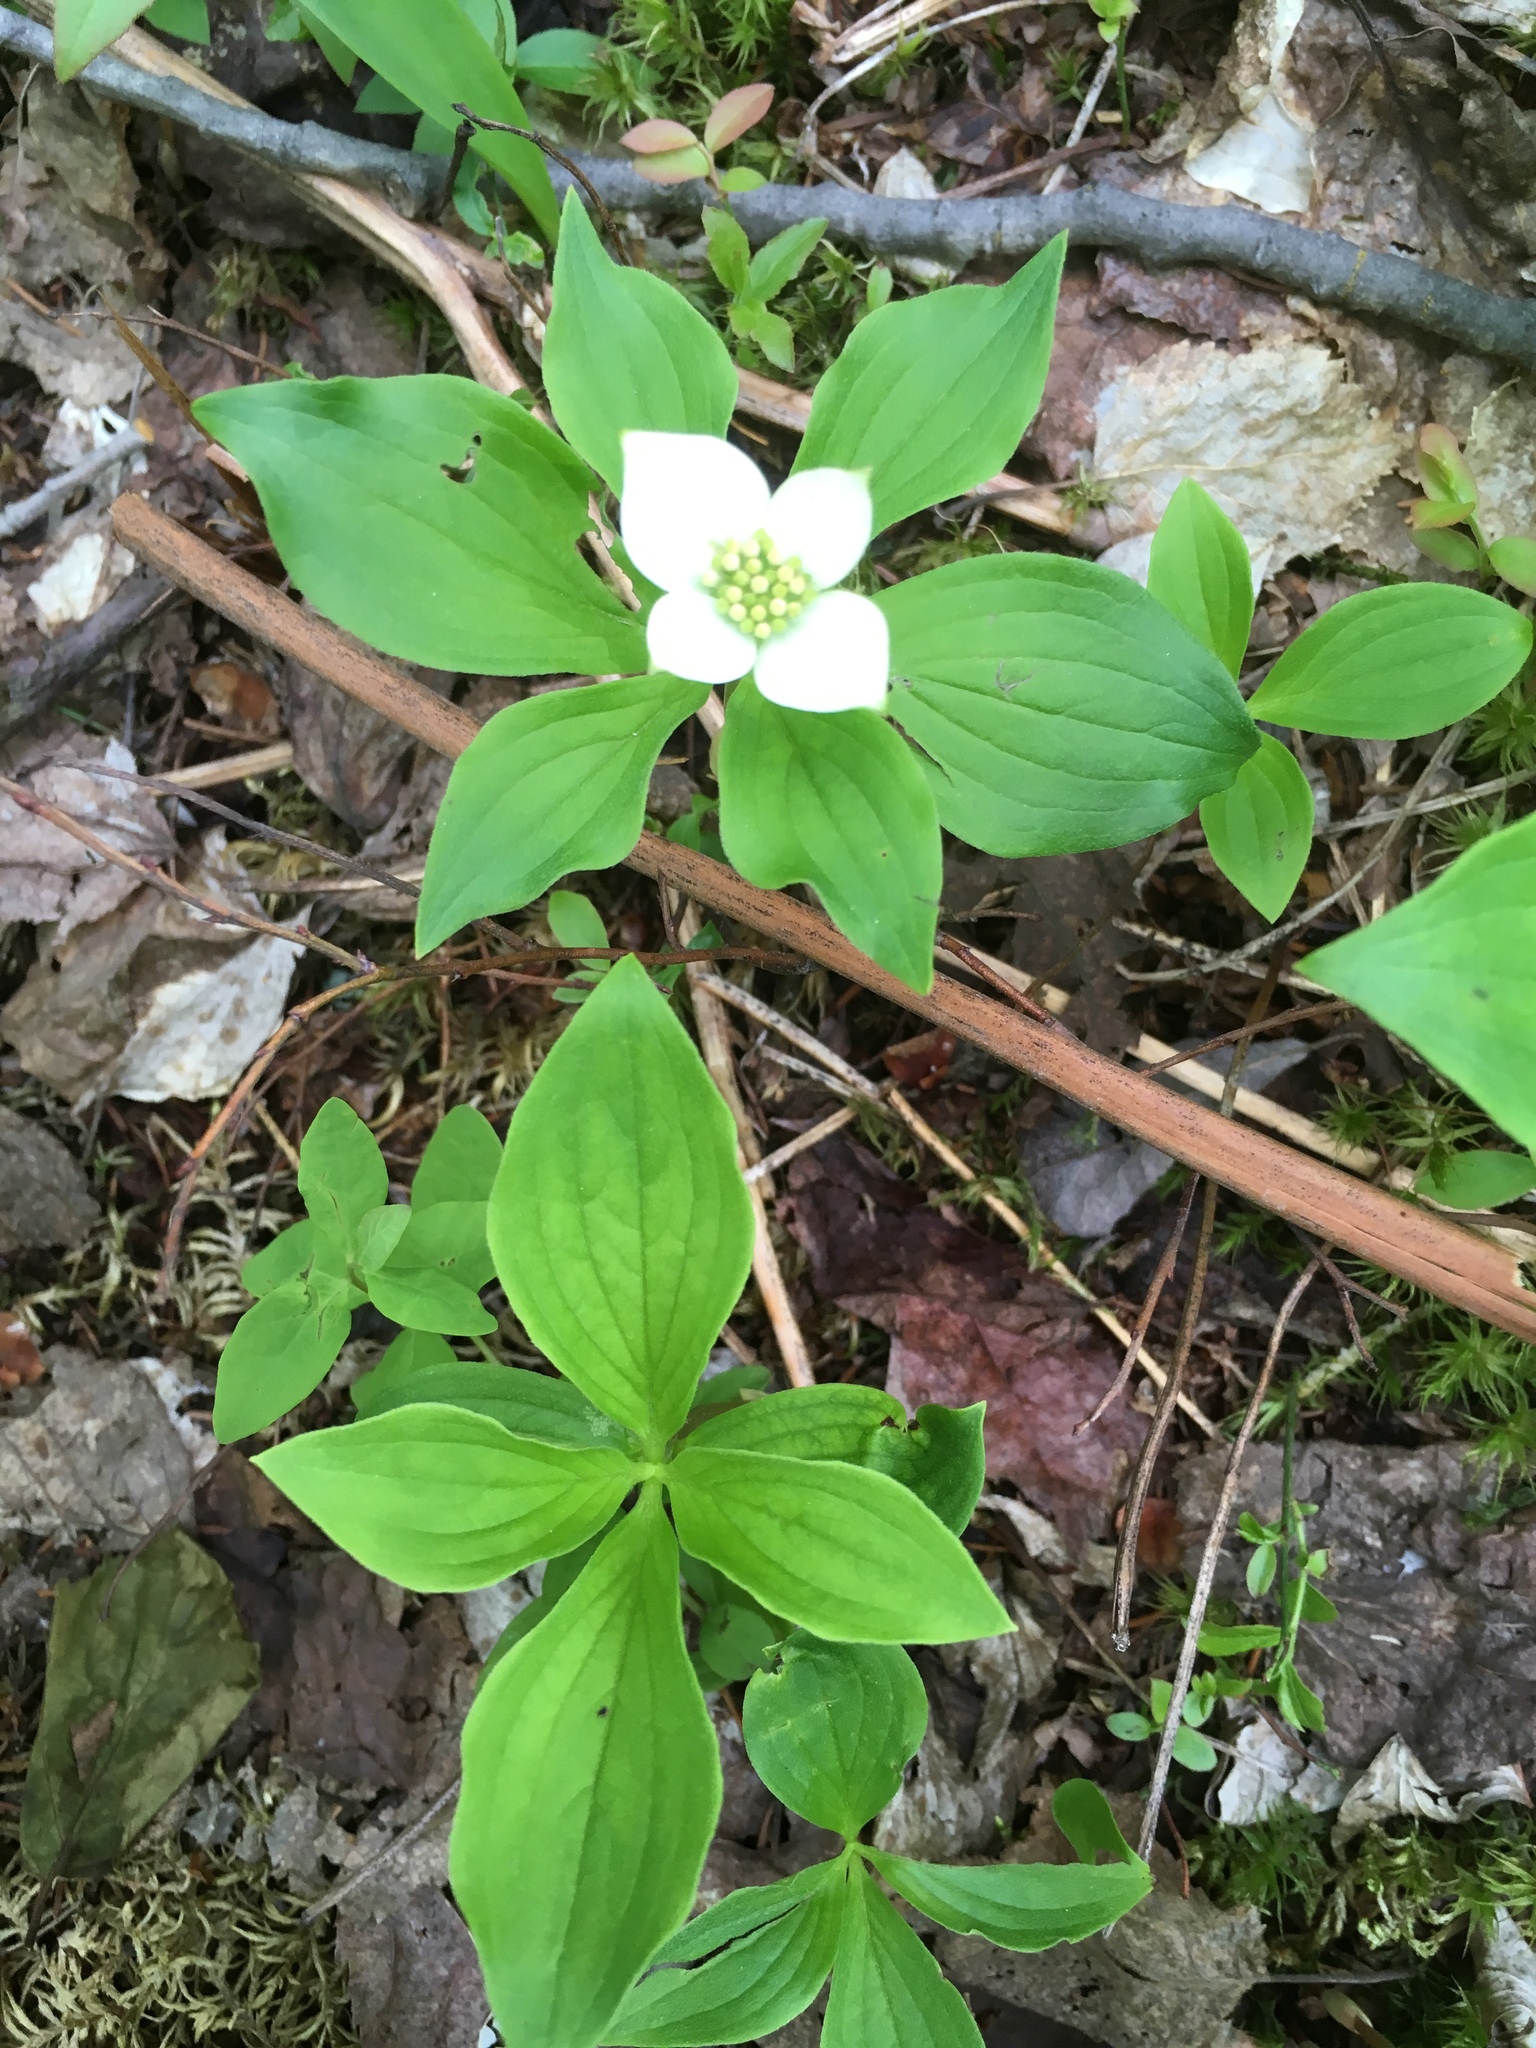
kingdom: Plantae
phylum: Tracheophyta
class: Magnoliopsida
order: Cornales
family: Cornaceae
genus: Cornus
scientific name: Cornus canadensis
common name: Creeping dogwood
